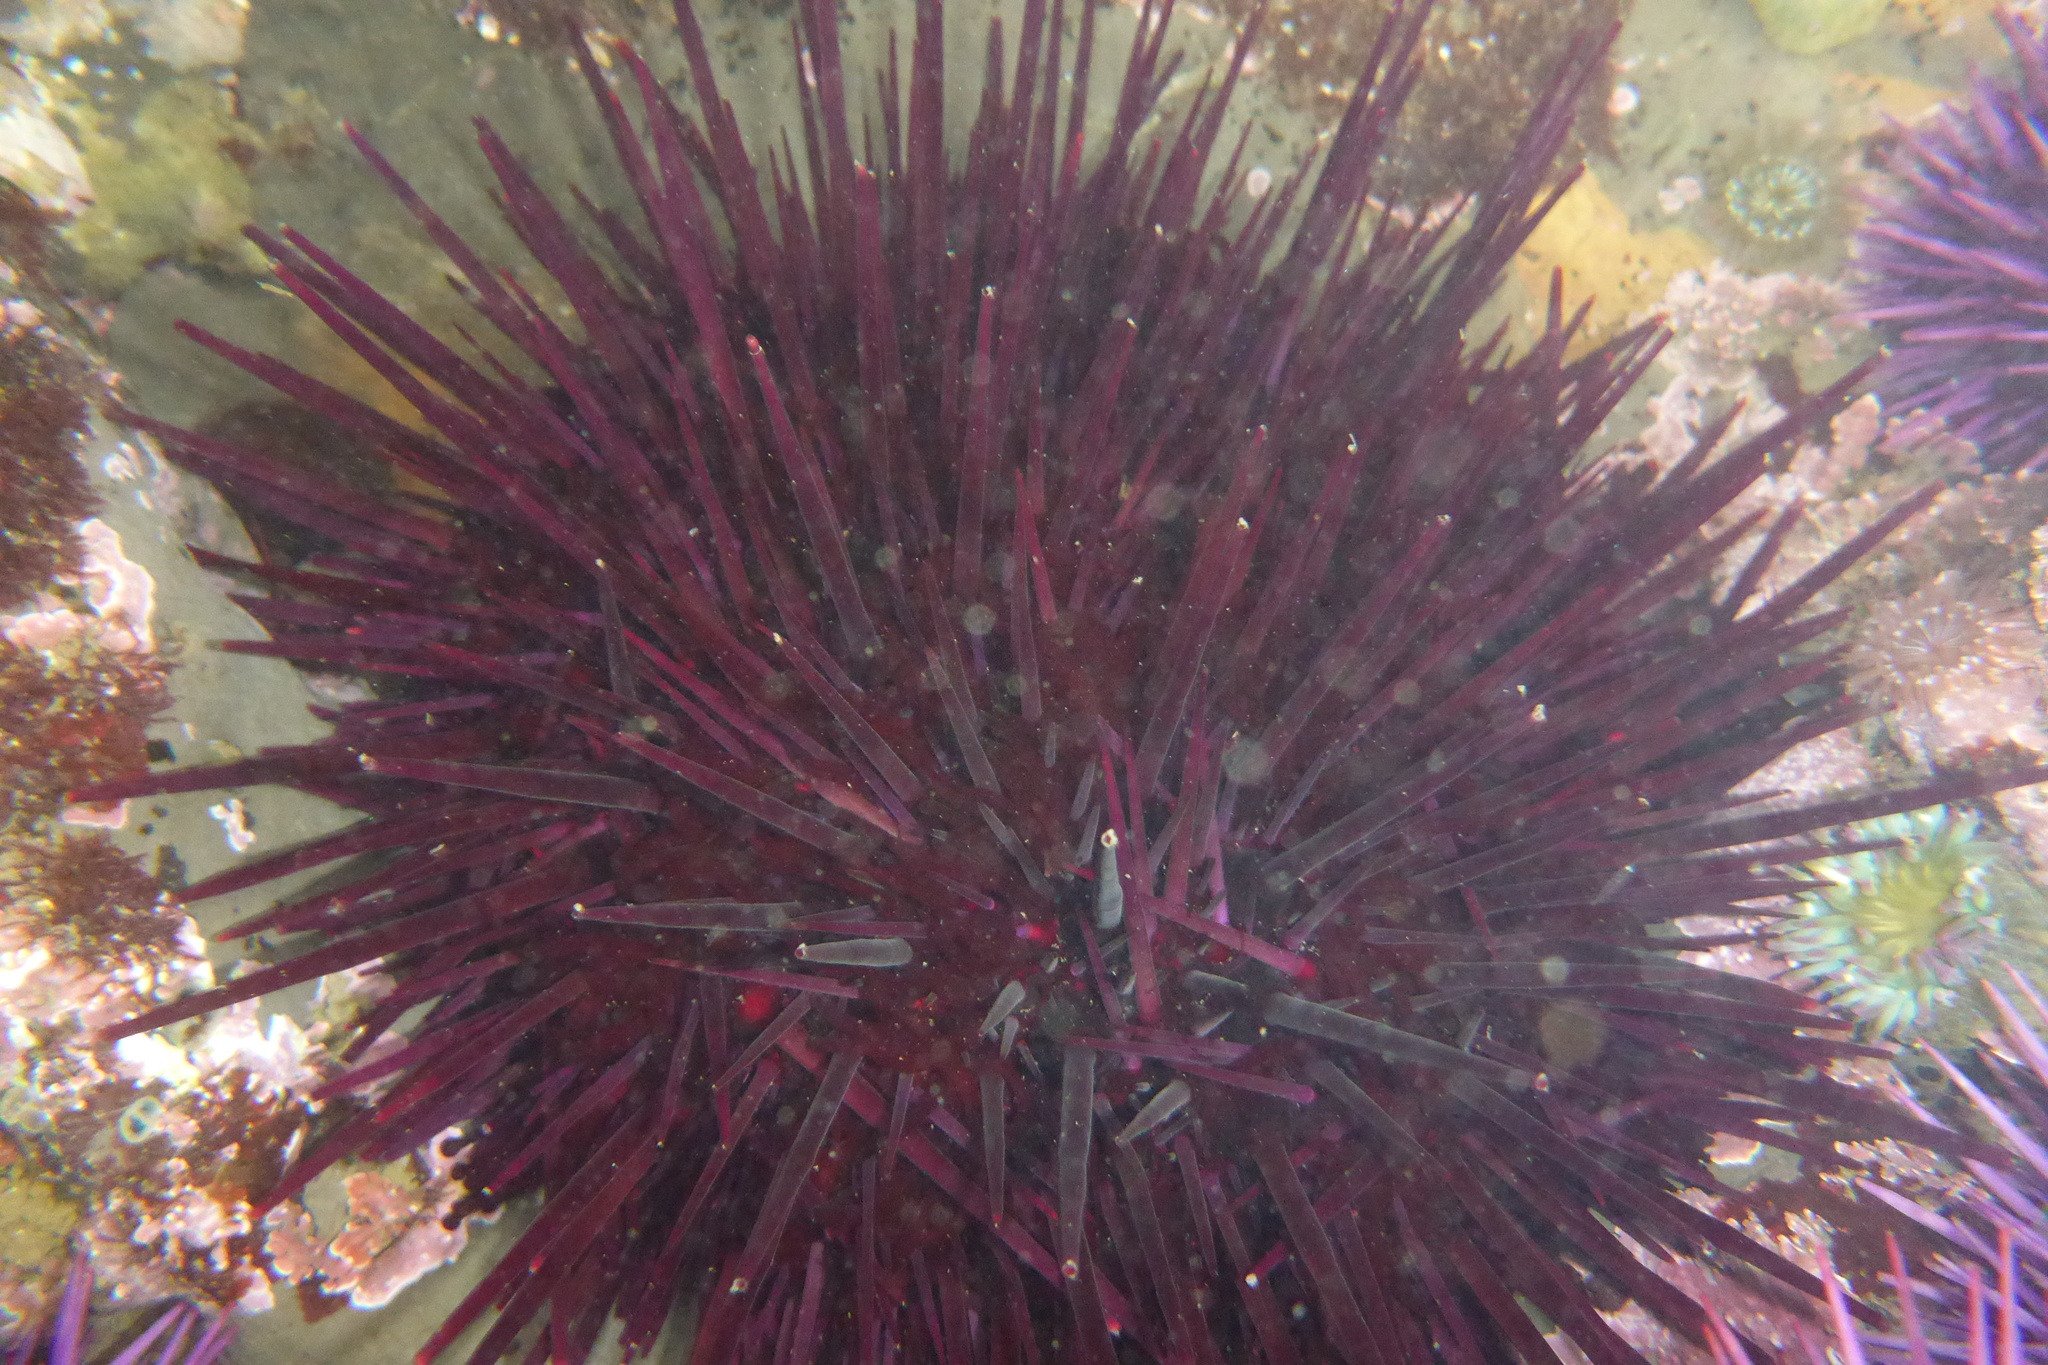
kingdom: Animalia
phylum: Echinodermata
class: Echinoidea
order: Camarodonta
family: Strongylocentrotidae
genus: Mesocentrotus
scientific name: Mesocentrotus franciscanus
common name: Red sea urchin
